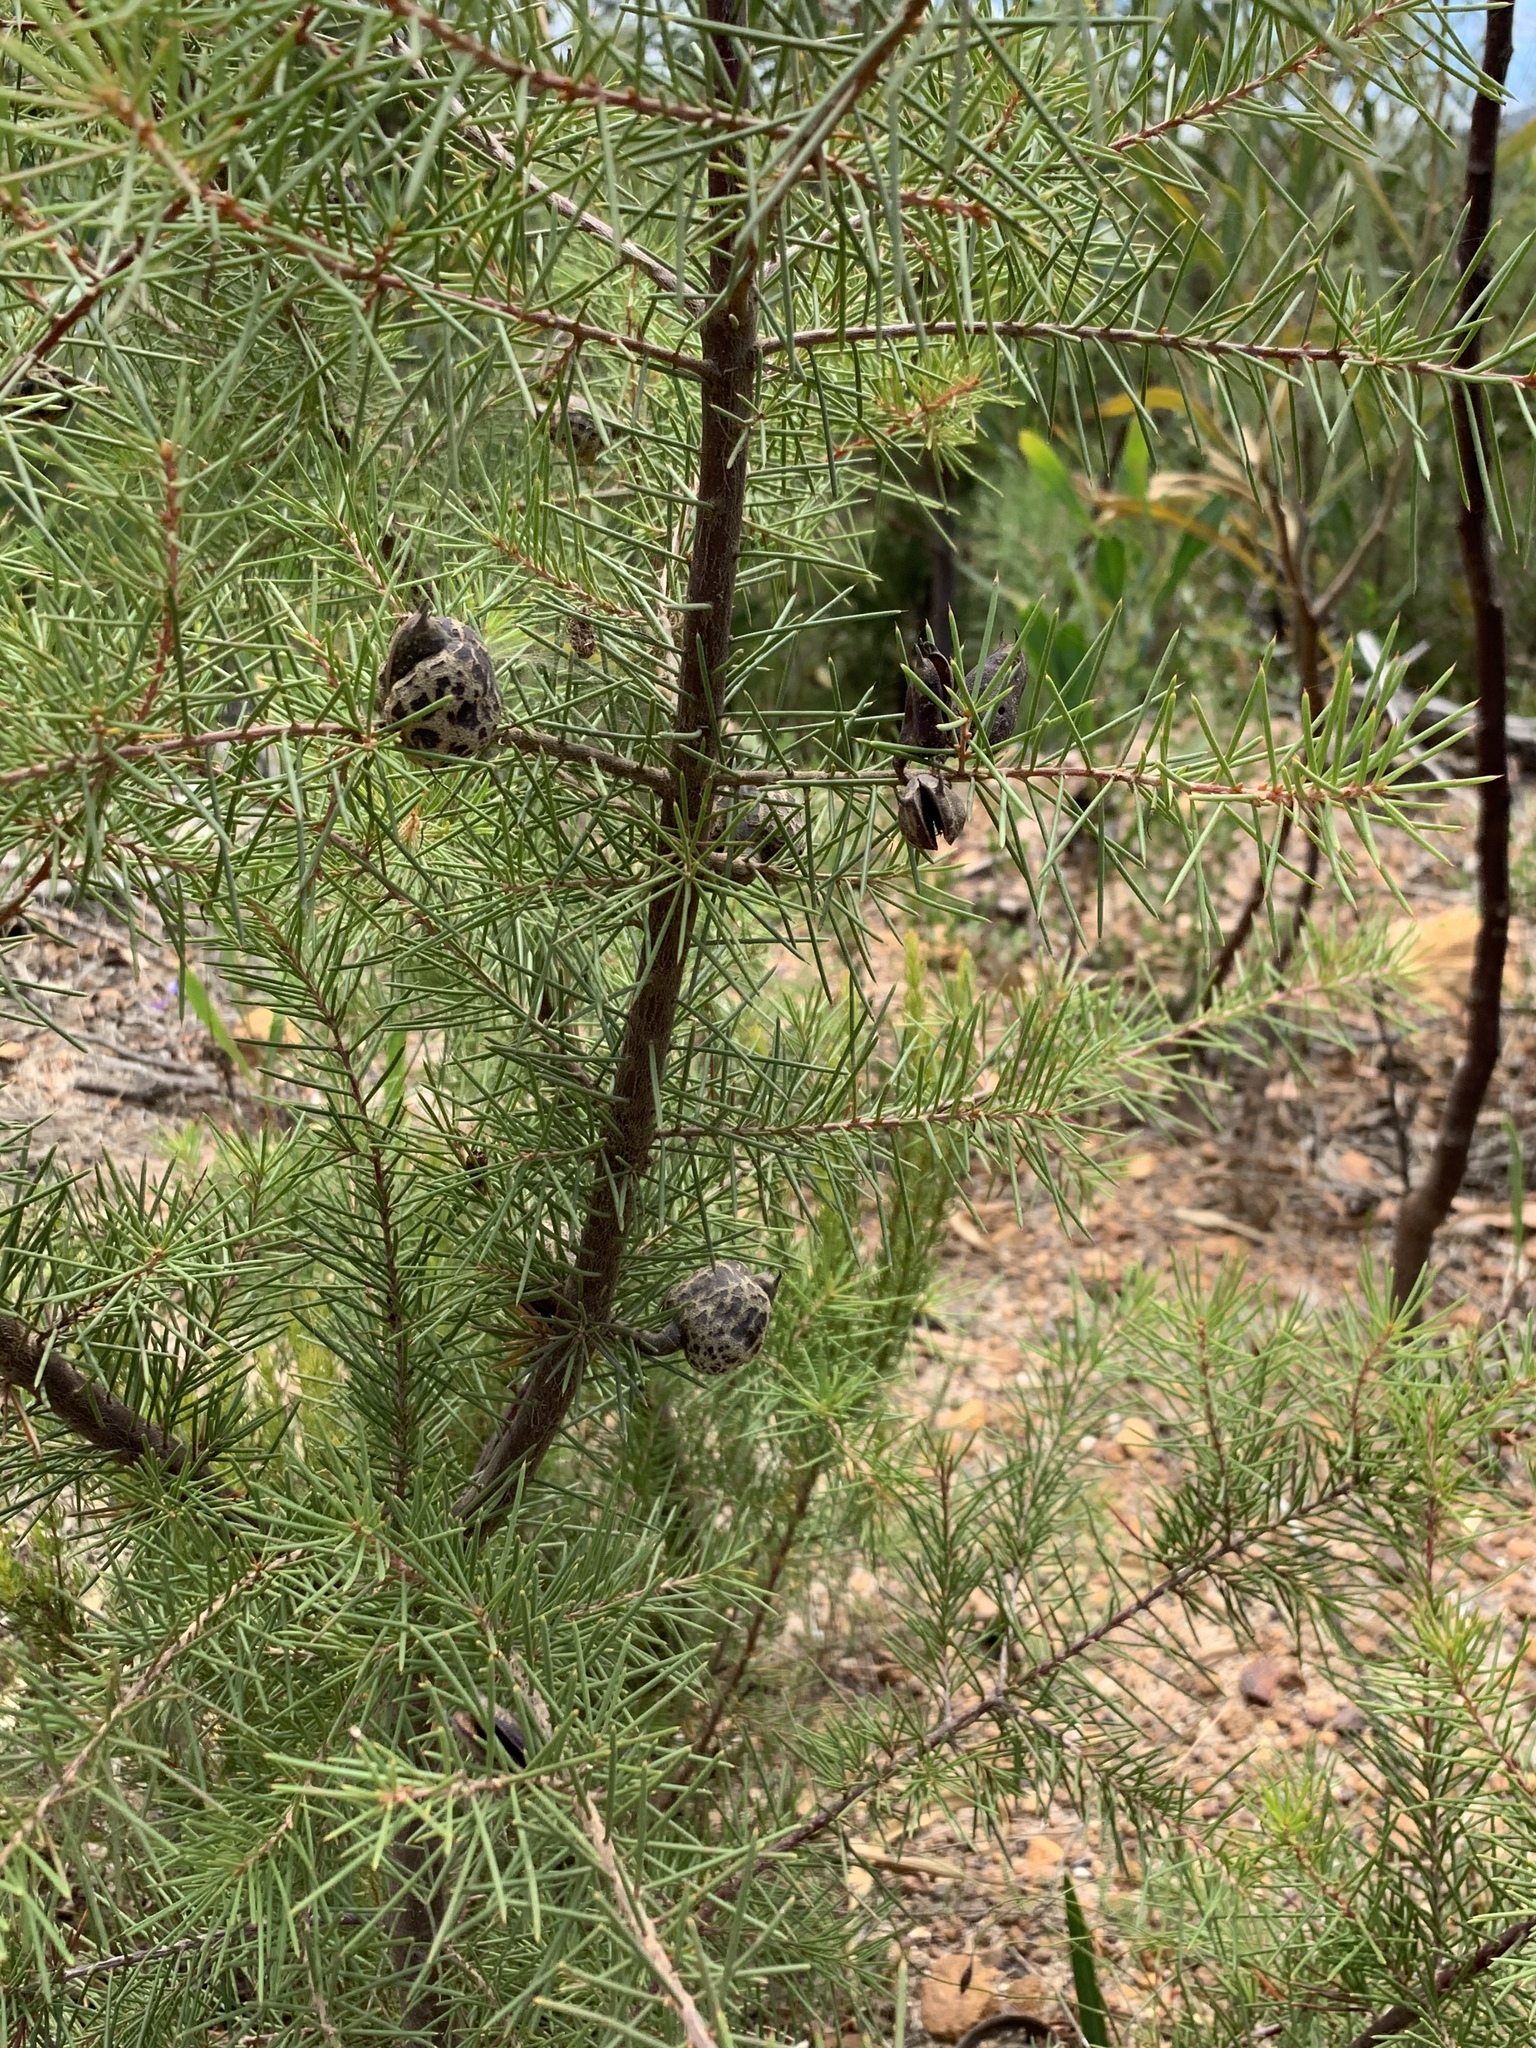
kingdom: Plantae
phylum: Tracheophyta
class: Magnoliopsida
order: Proteales
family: Proteaceae
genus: Hakea
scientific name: Hakea sericea
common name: Needle bush
